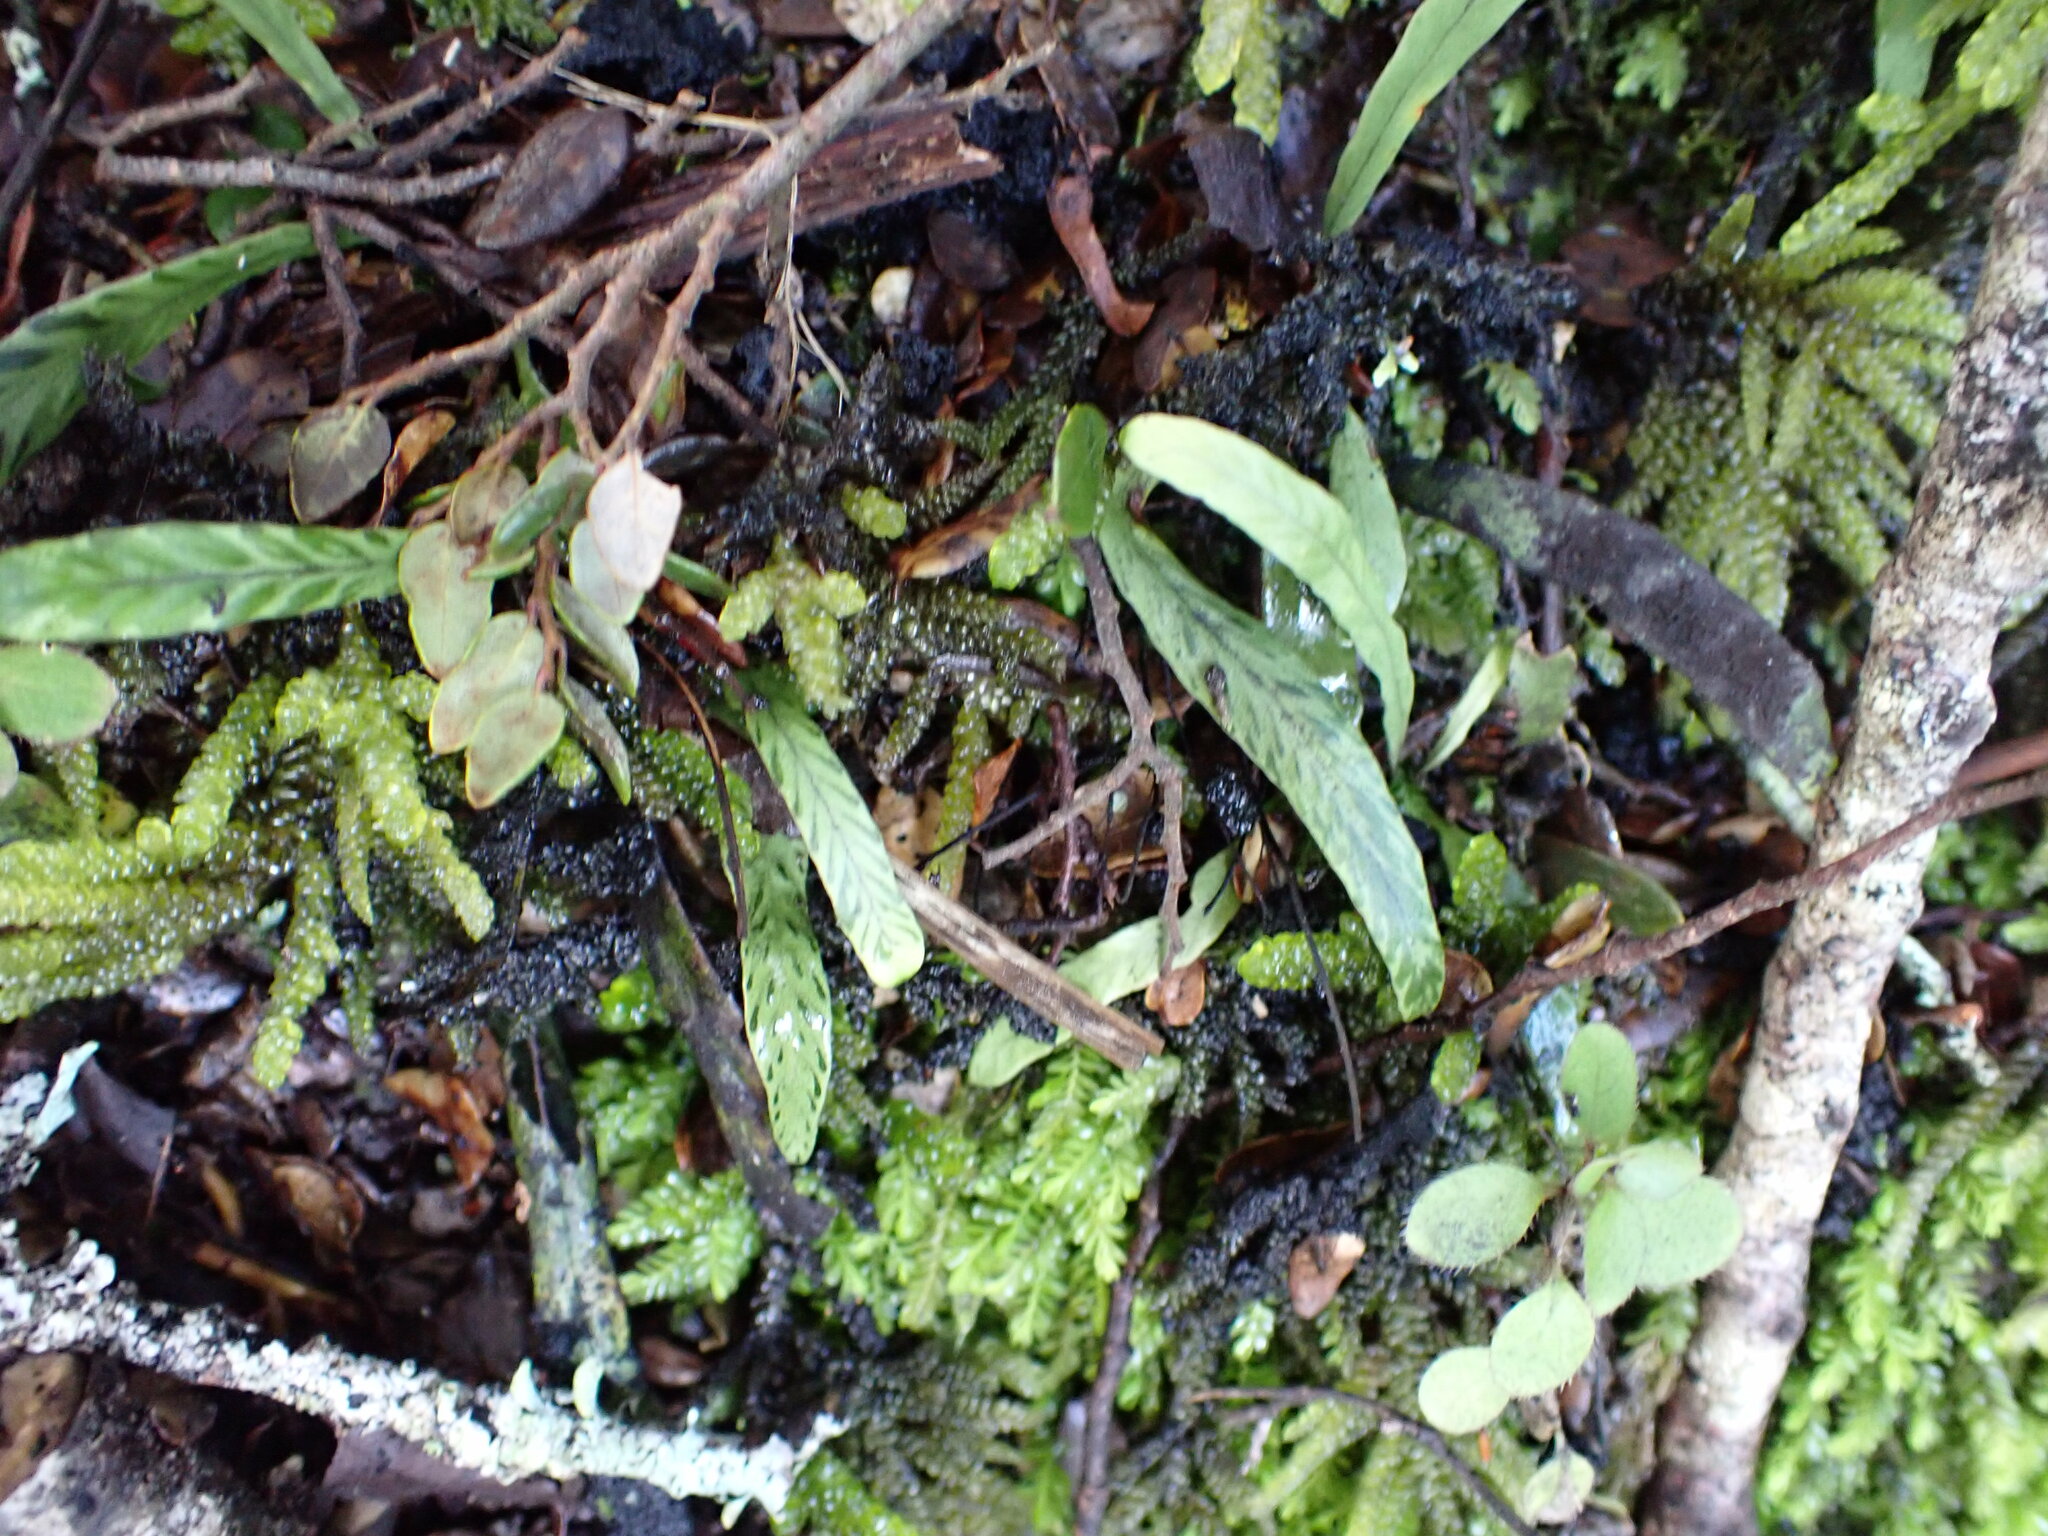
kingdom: Plantae
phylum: Tracheophyta
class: Polypodiopsida
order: Polypodiales
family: Polypodiaceae
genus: Notogrammitis
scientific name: Notogrammitis billardierei
